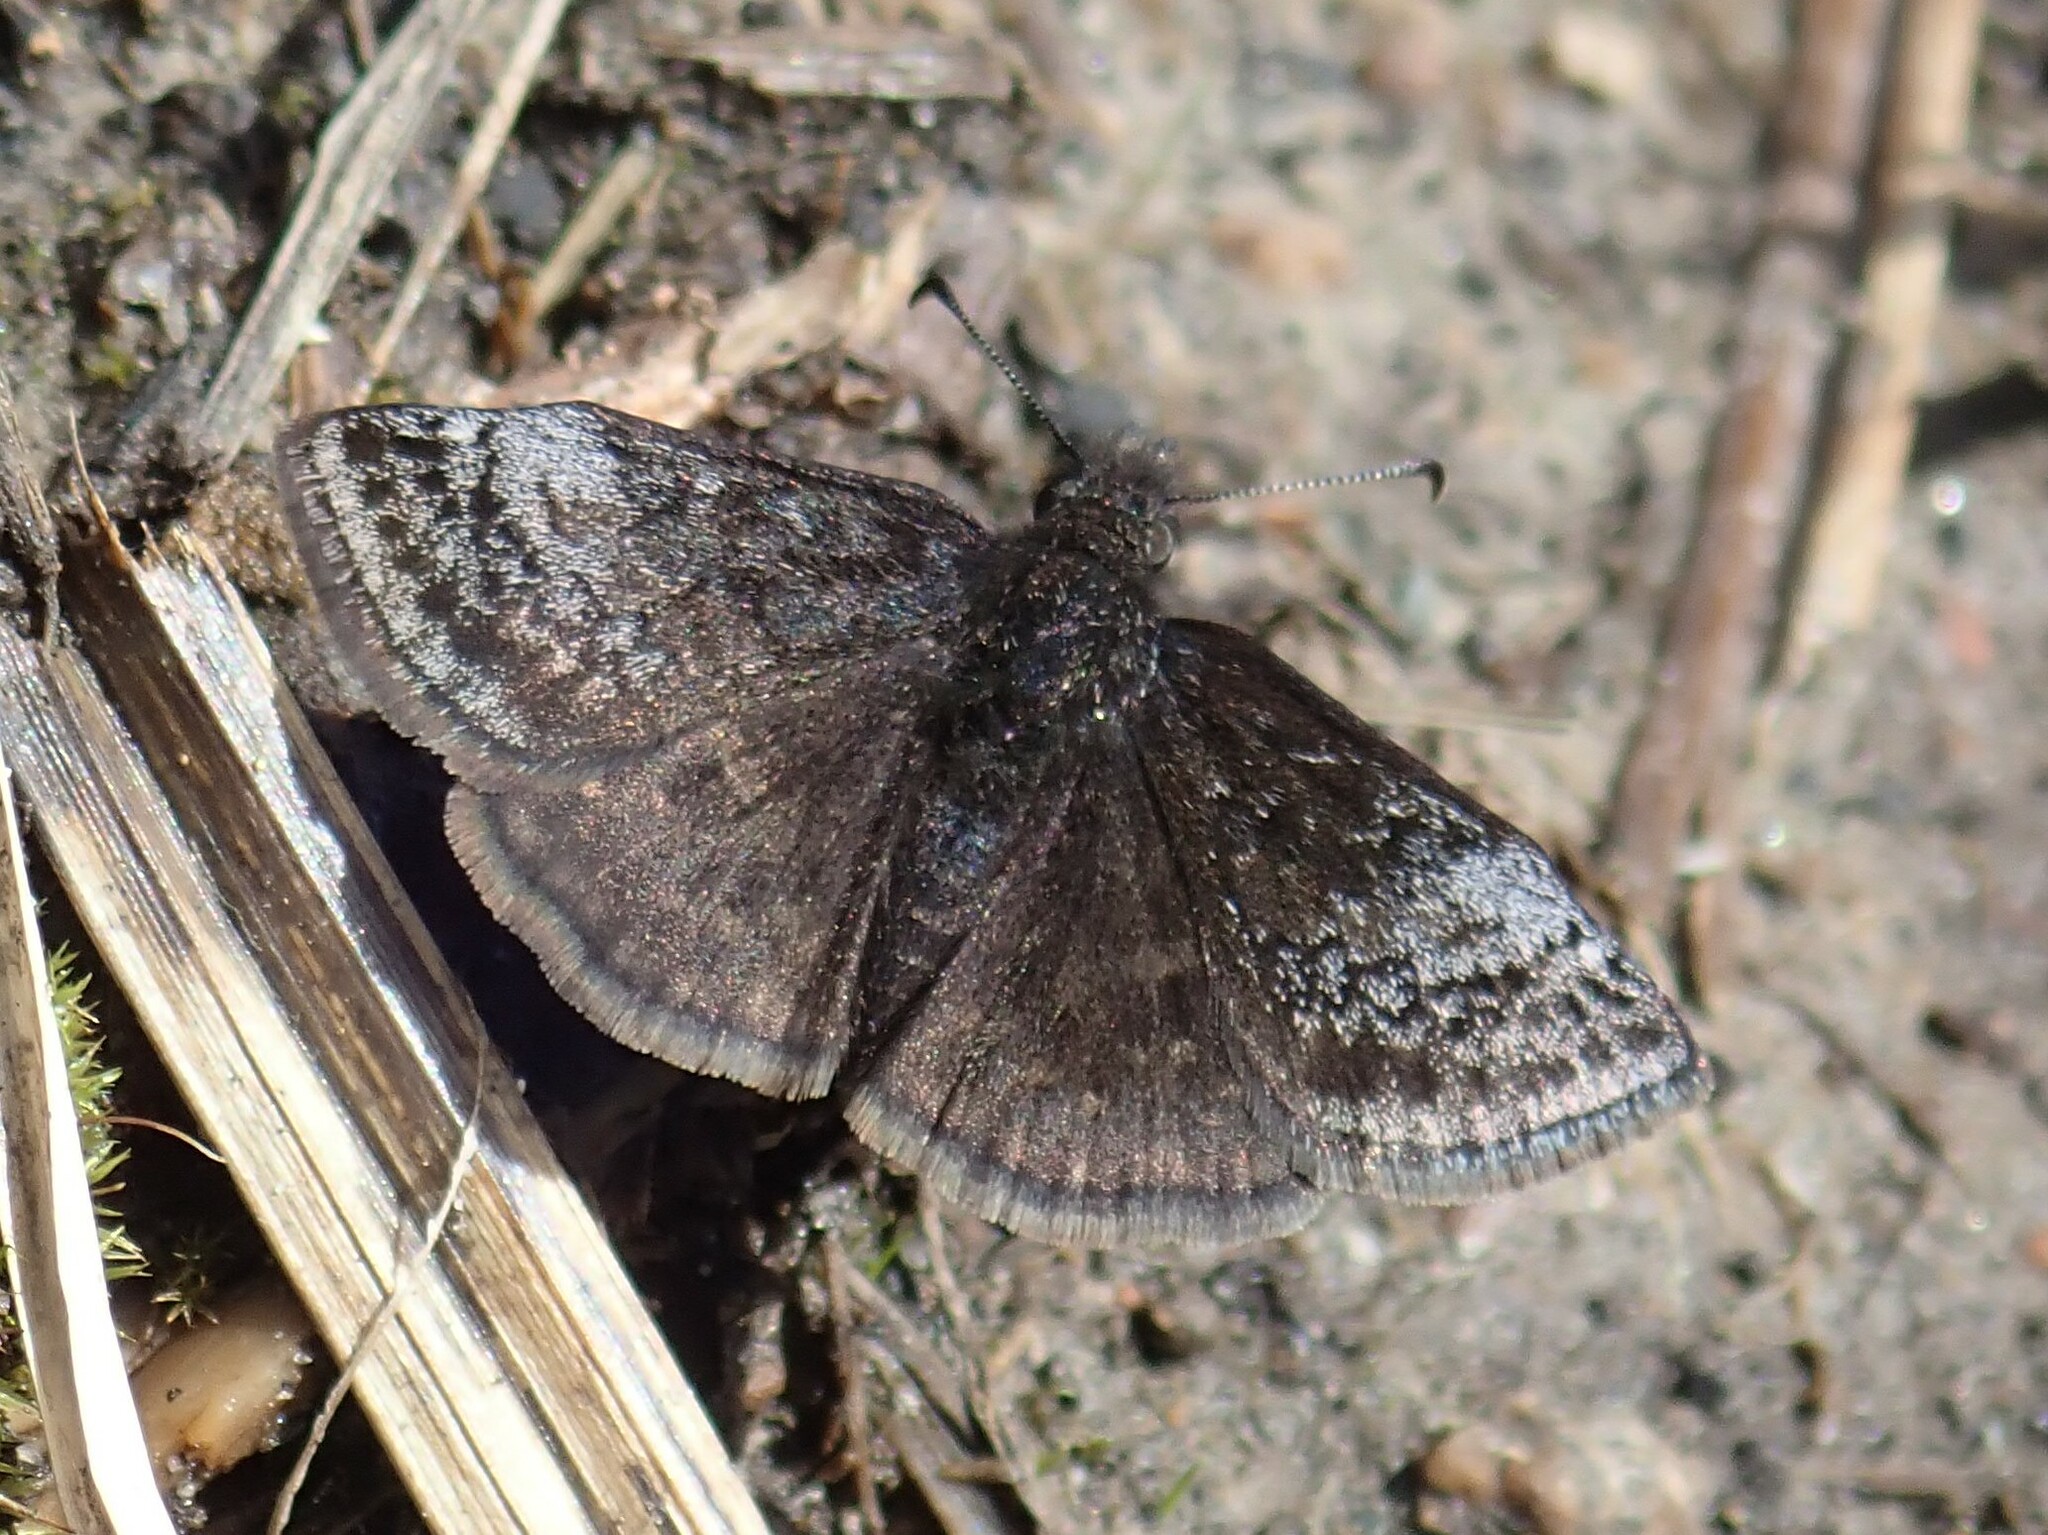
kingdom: Animalia
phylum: Arthropoda
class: Insecta
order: Lepidoptera
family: Hesperiidae
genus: Erynnis
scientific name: Erynnis icelus
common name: Dreamy duskywing
